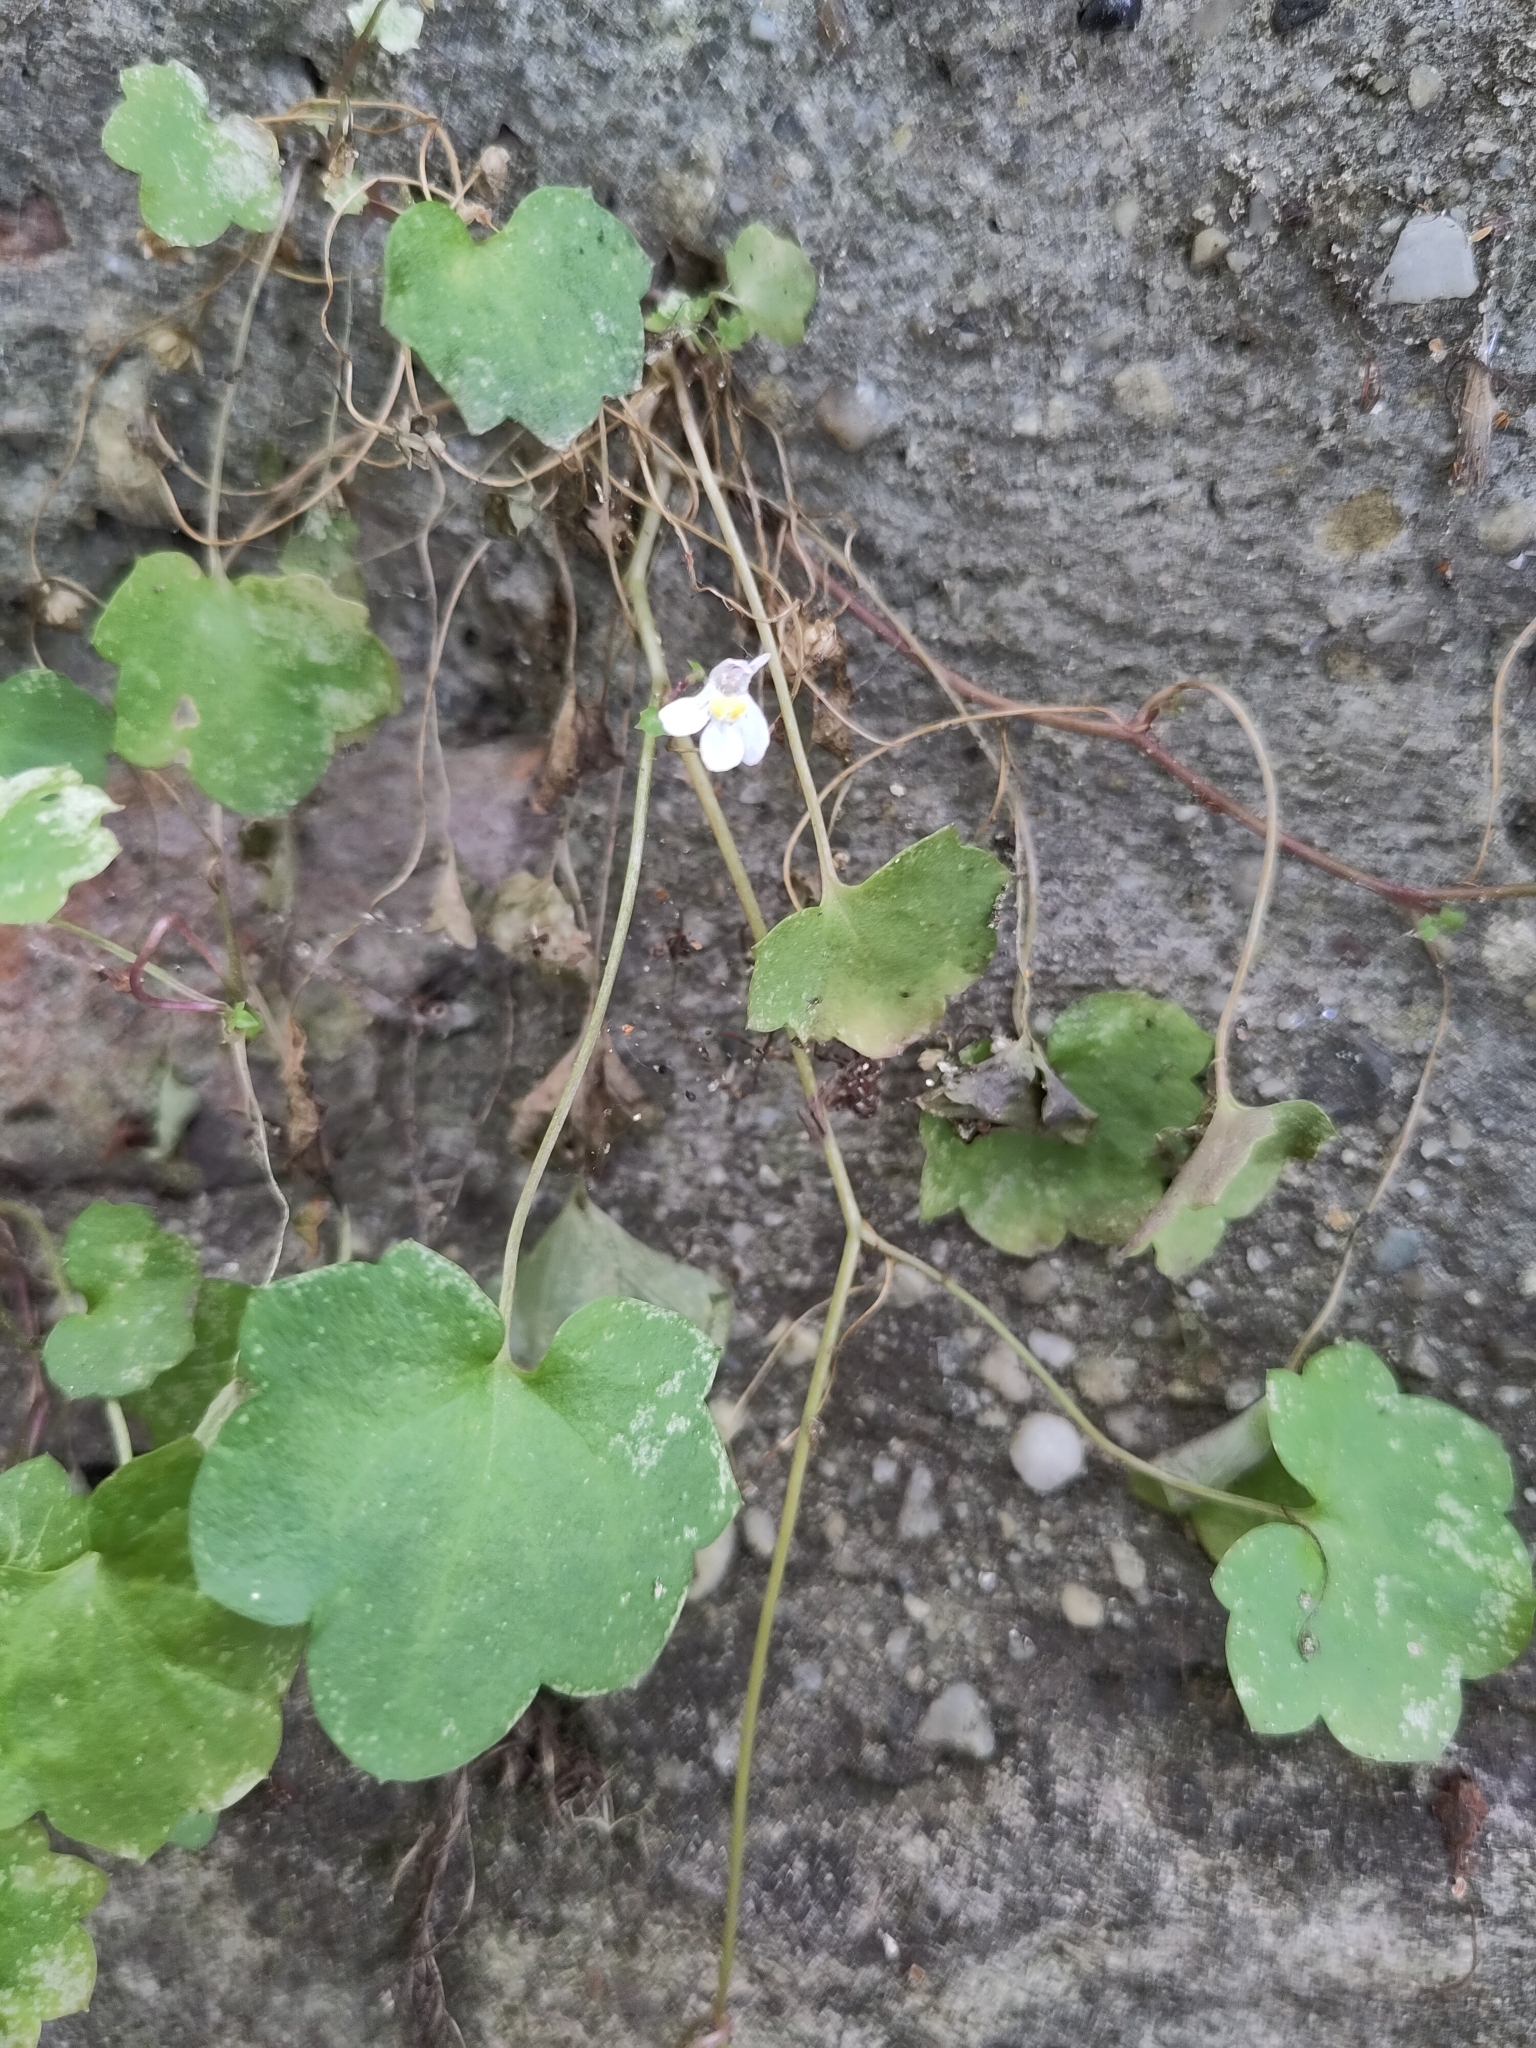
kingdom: Plantae
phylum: Tracheophyta
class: Magnoliopsida
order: Lamiales
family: Plantaginaceae
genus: Cymbalaria
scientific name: Cymbalaria muralis
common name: Ivy-leaved toadflax
